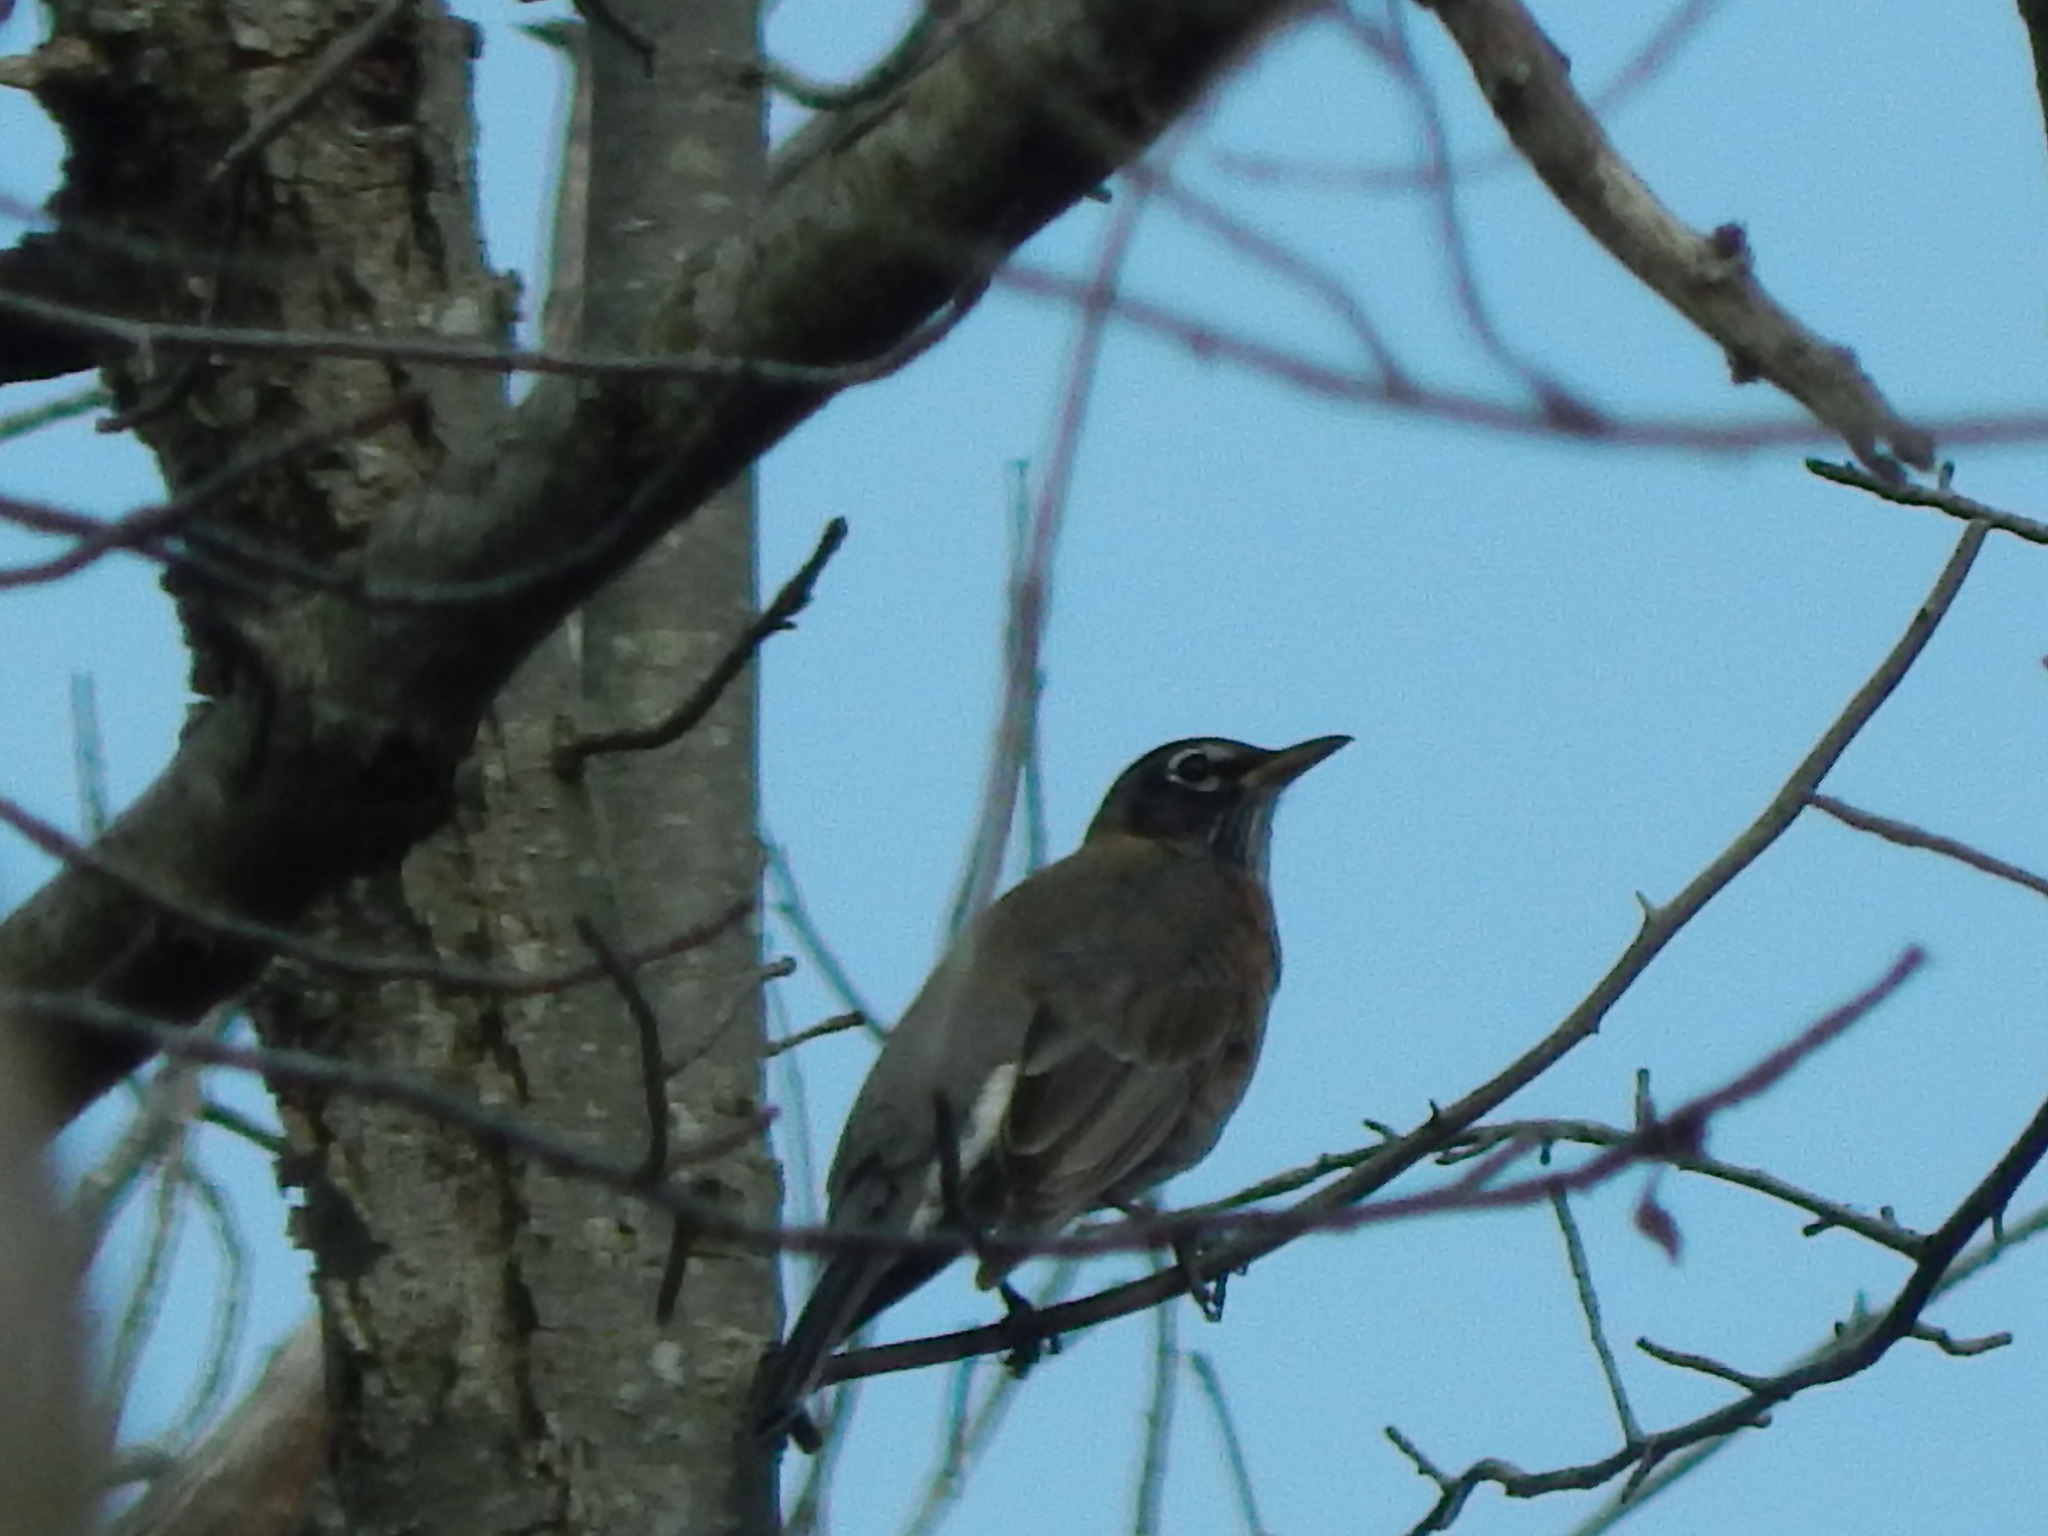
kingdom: Animalia
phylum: Chordata
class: Aves
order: Passeriformes
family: Turdidae
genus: Turdus
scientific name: Turdus migratorius
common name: American robin
